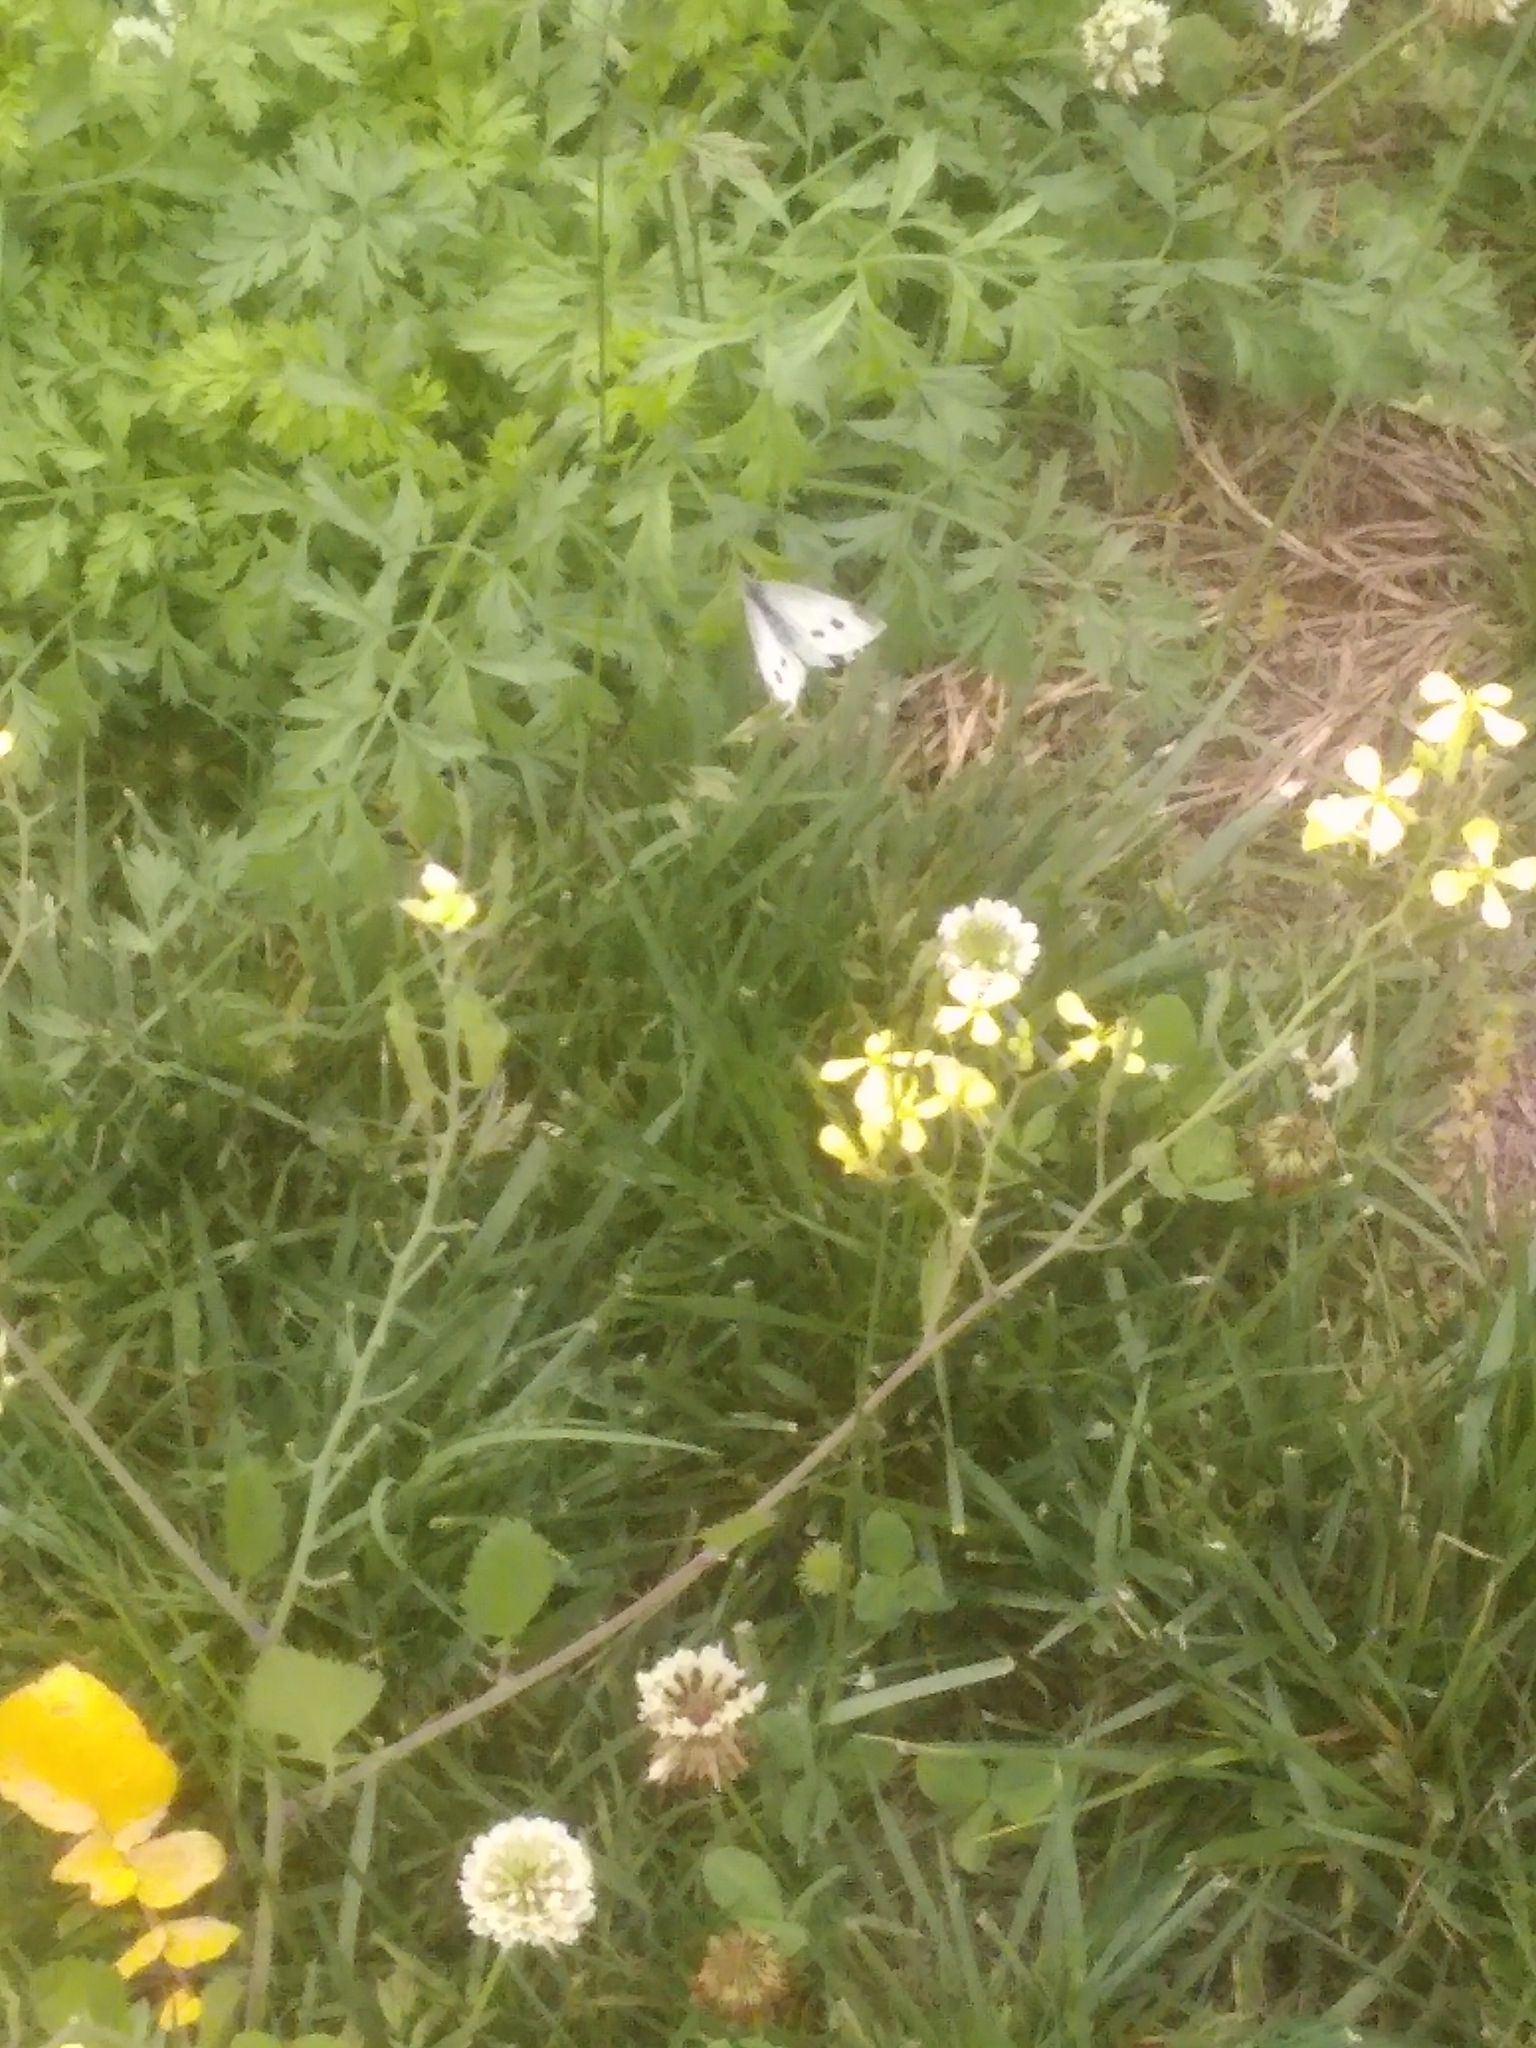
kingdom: Animalia
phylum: Arthropoda
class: Insecta
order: Lepidoptera
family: Pieridae
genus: Pieris
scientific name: Pieris rapae
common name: Small white
